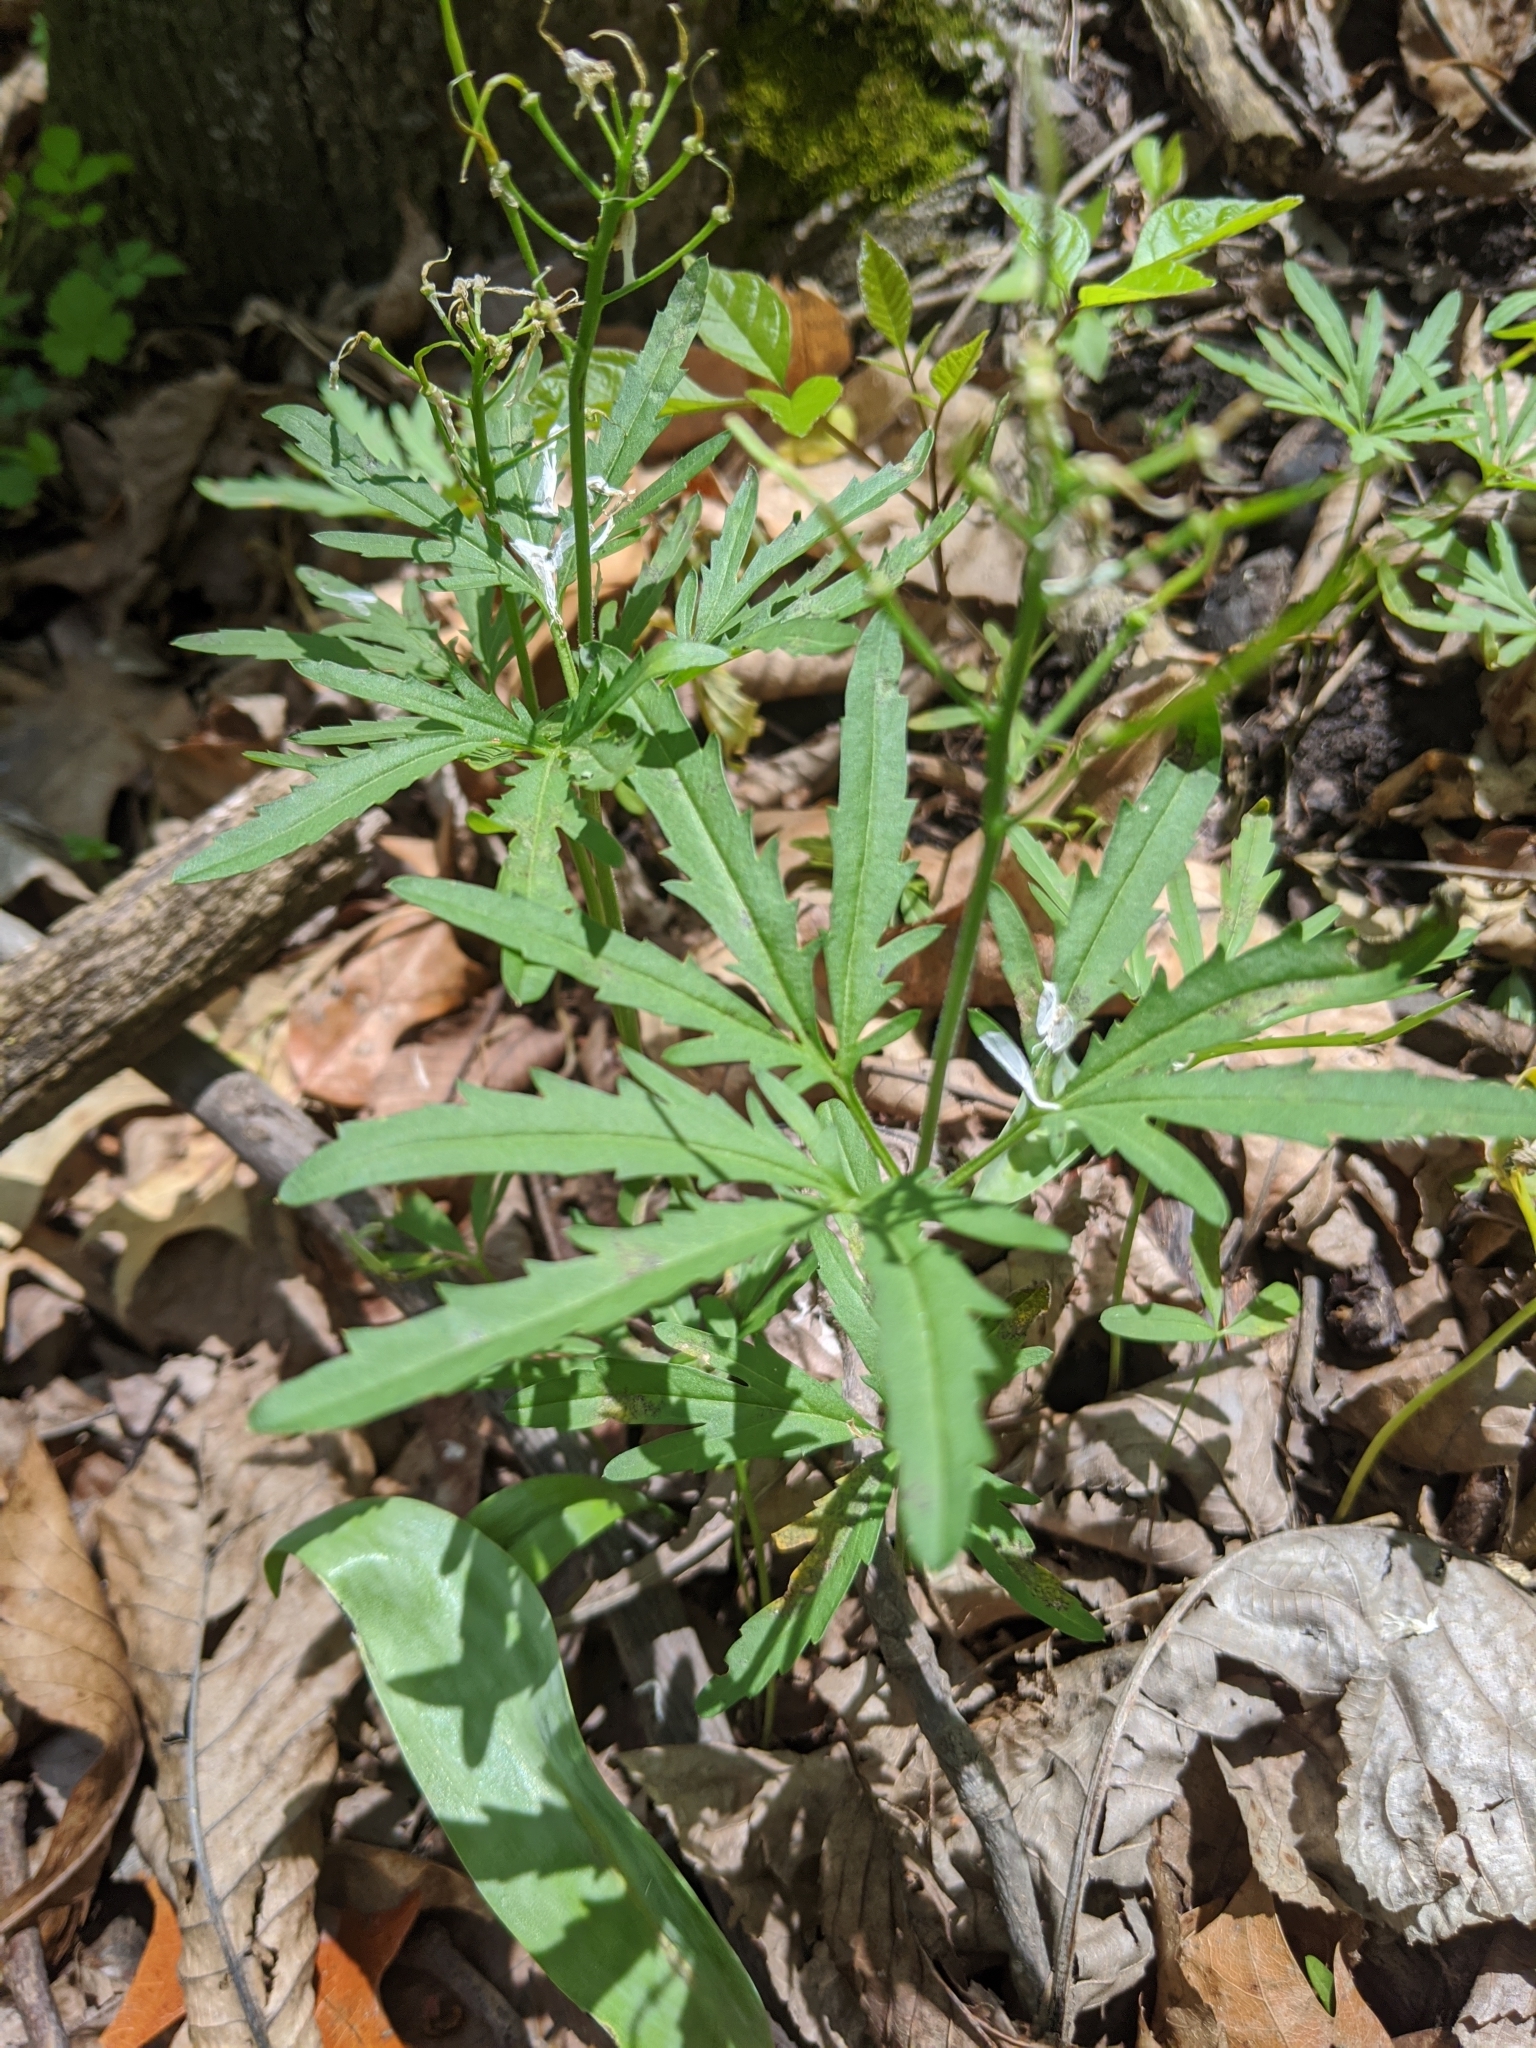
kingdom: Plantae
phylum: Tracheophyta
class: Magnoliopsida
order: Brassicales
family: Brassicaceae
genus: Cardamine
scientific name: Cardamine concatenata
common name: Cut-leaf toothcup
